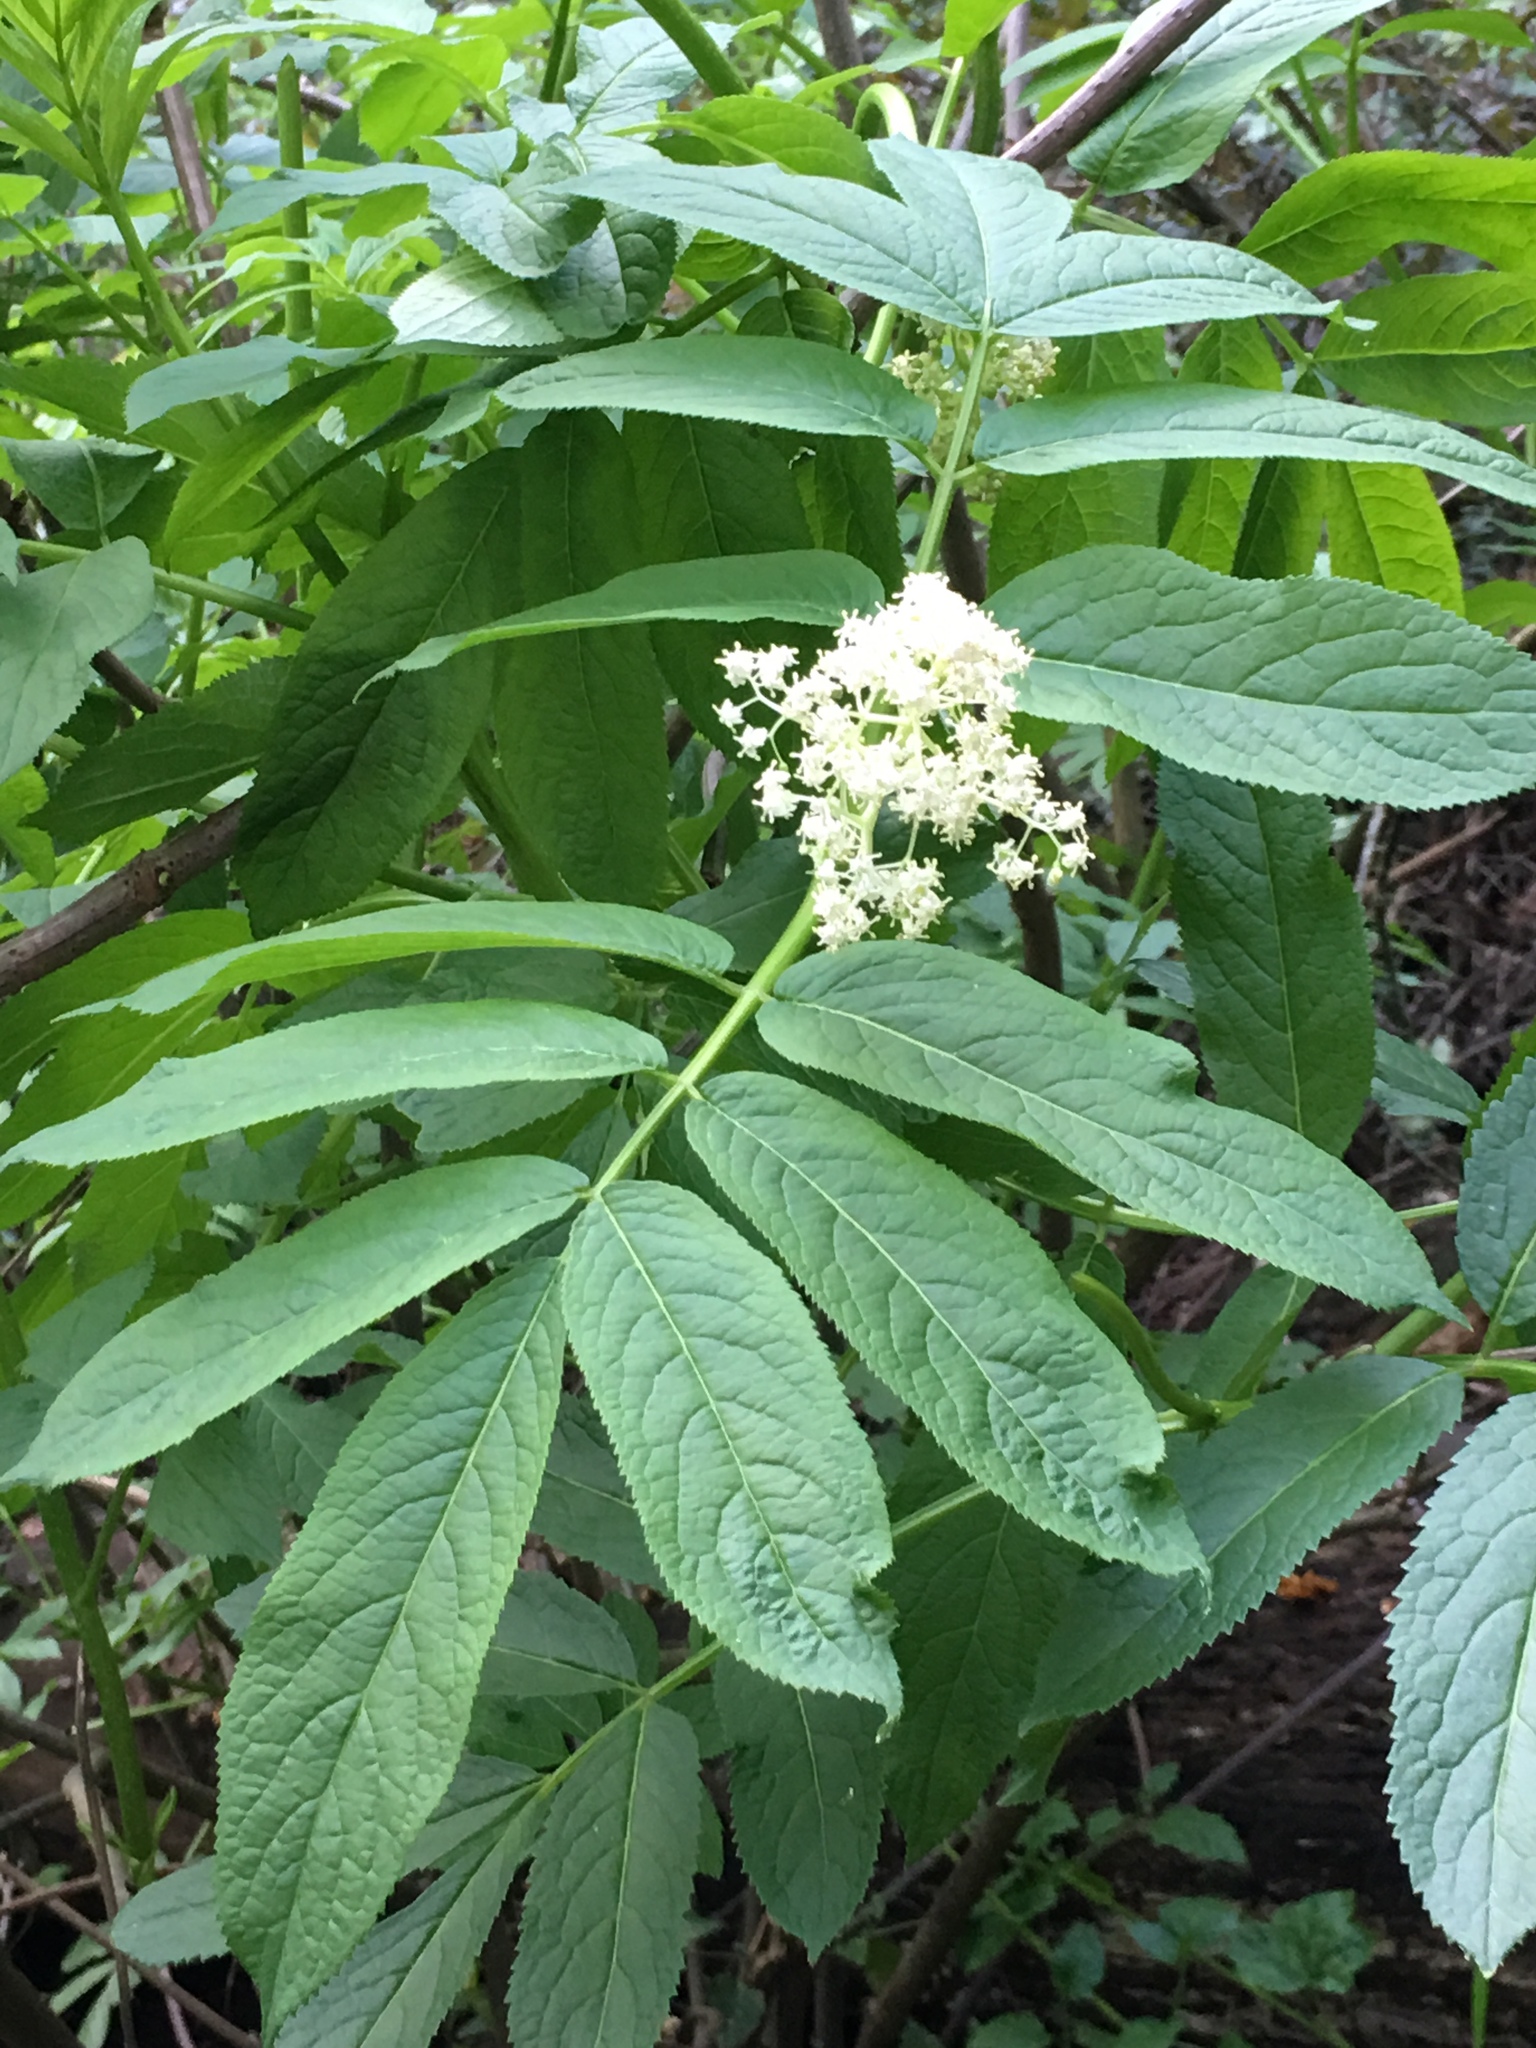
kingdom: Plantae
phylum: Tracheophyta
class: Magnoliopsida
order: Dipsacales
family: Viburnaceae
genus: Sambucus
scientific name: Sambucus racemosa
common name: Red-berried elder
